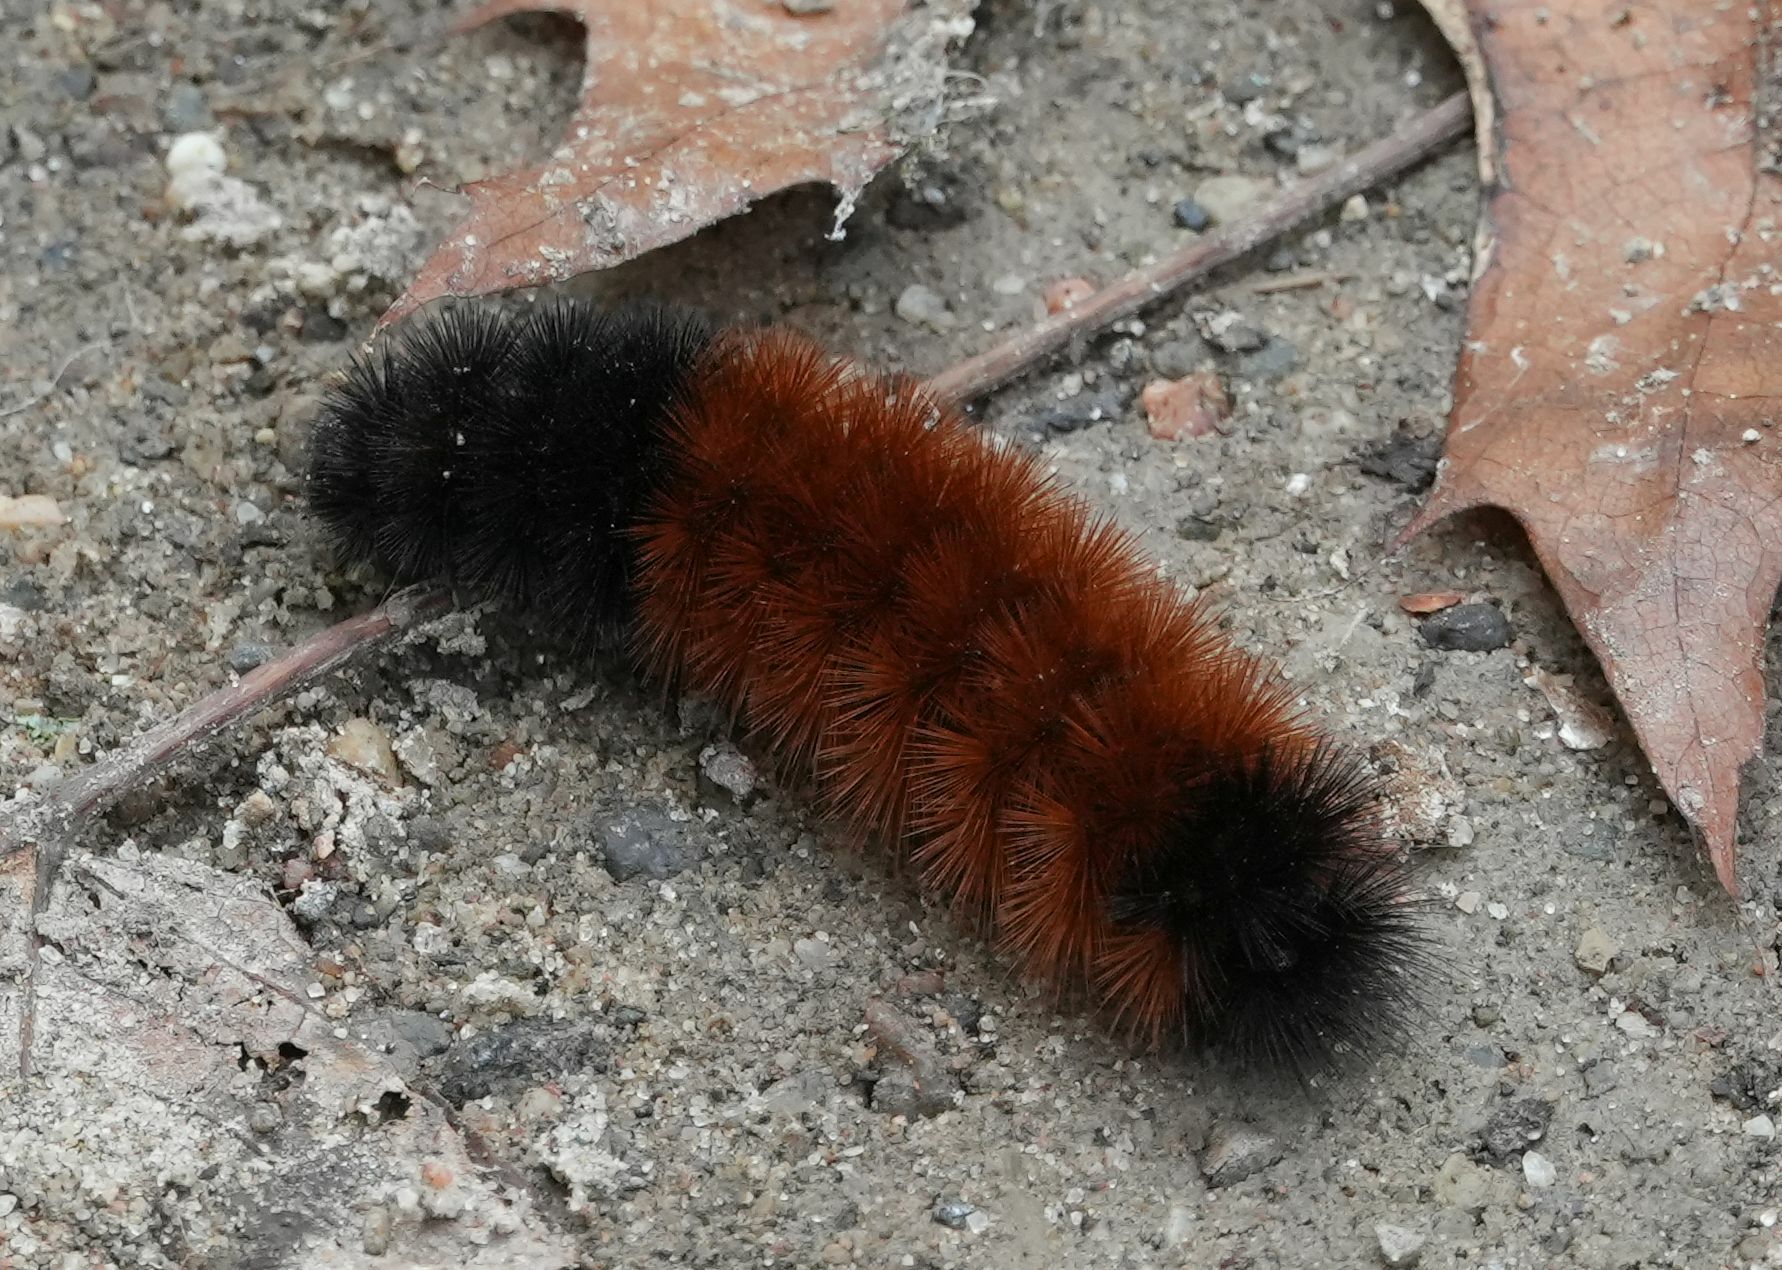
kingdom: Animalia
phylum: Arthropoda
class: Insecta
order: Lepidoptera
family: Erebidae
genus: Pyrrharctia
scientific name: Pyrrharctia isabella
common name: Isabella tiger moth
